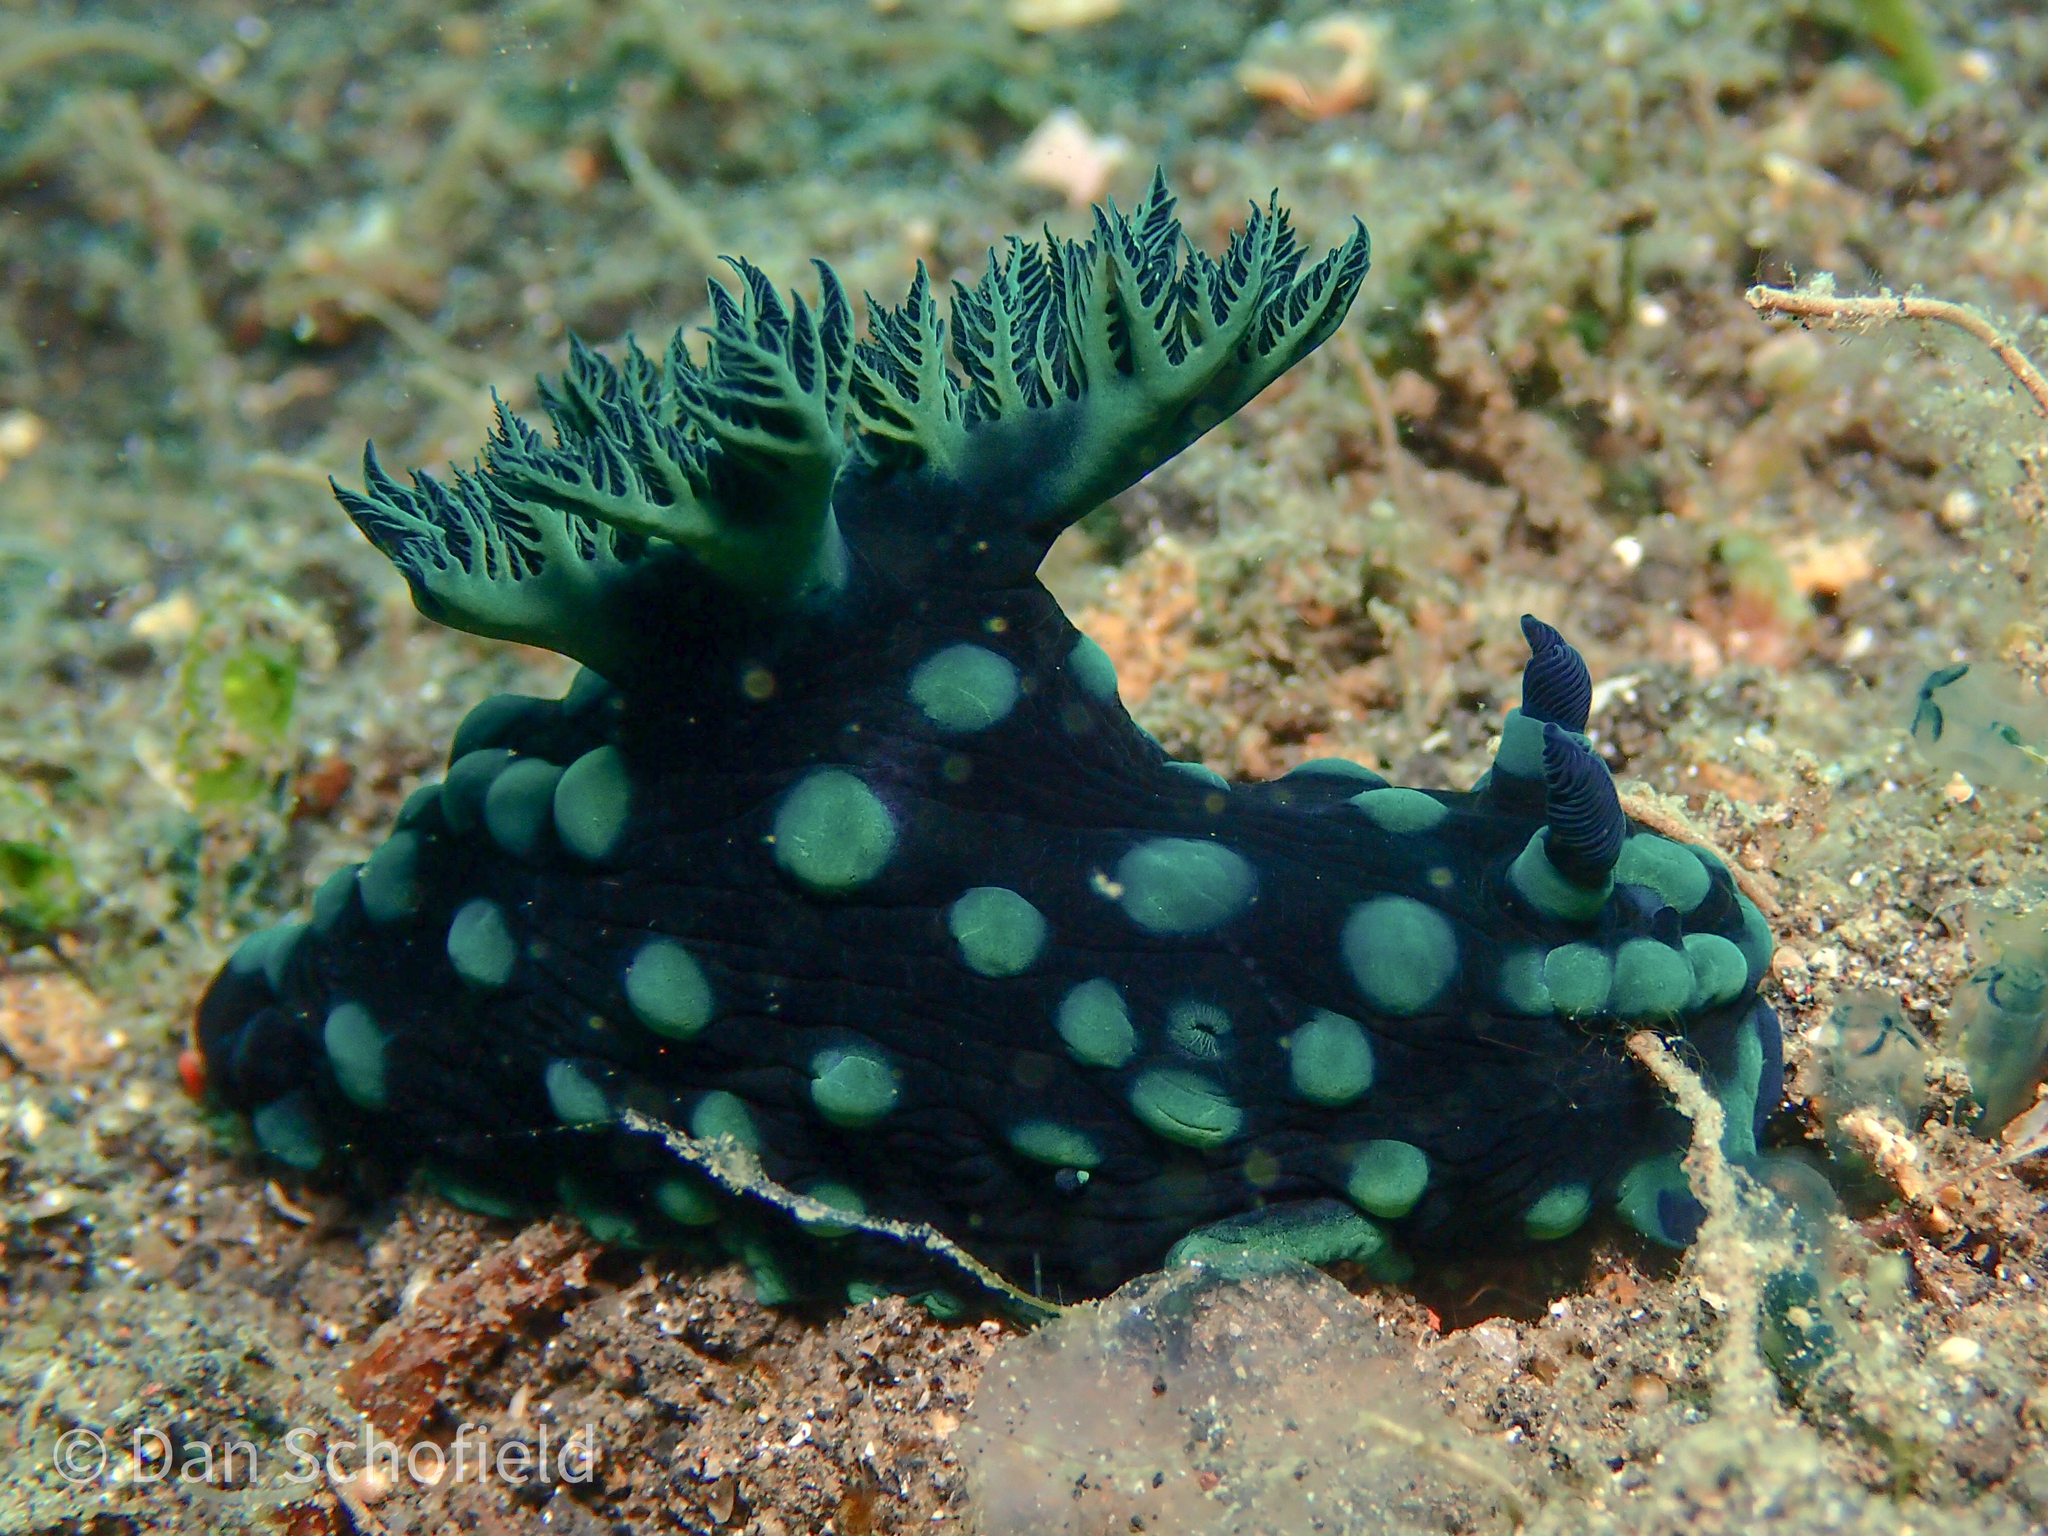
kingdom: Animalia
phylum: Mollusca
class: Gastropoda
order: Nudibranchia
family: Polyceridae
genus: Nembrotha
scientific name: Nembrotha cristata
